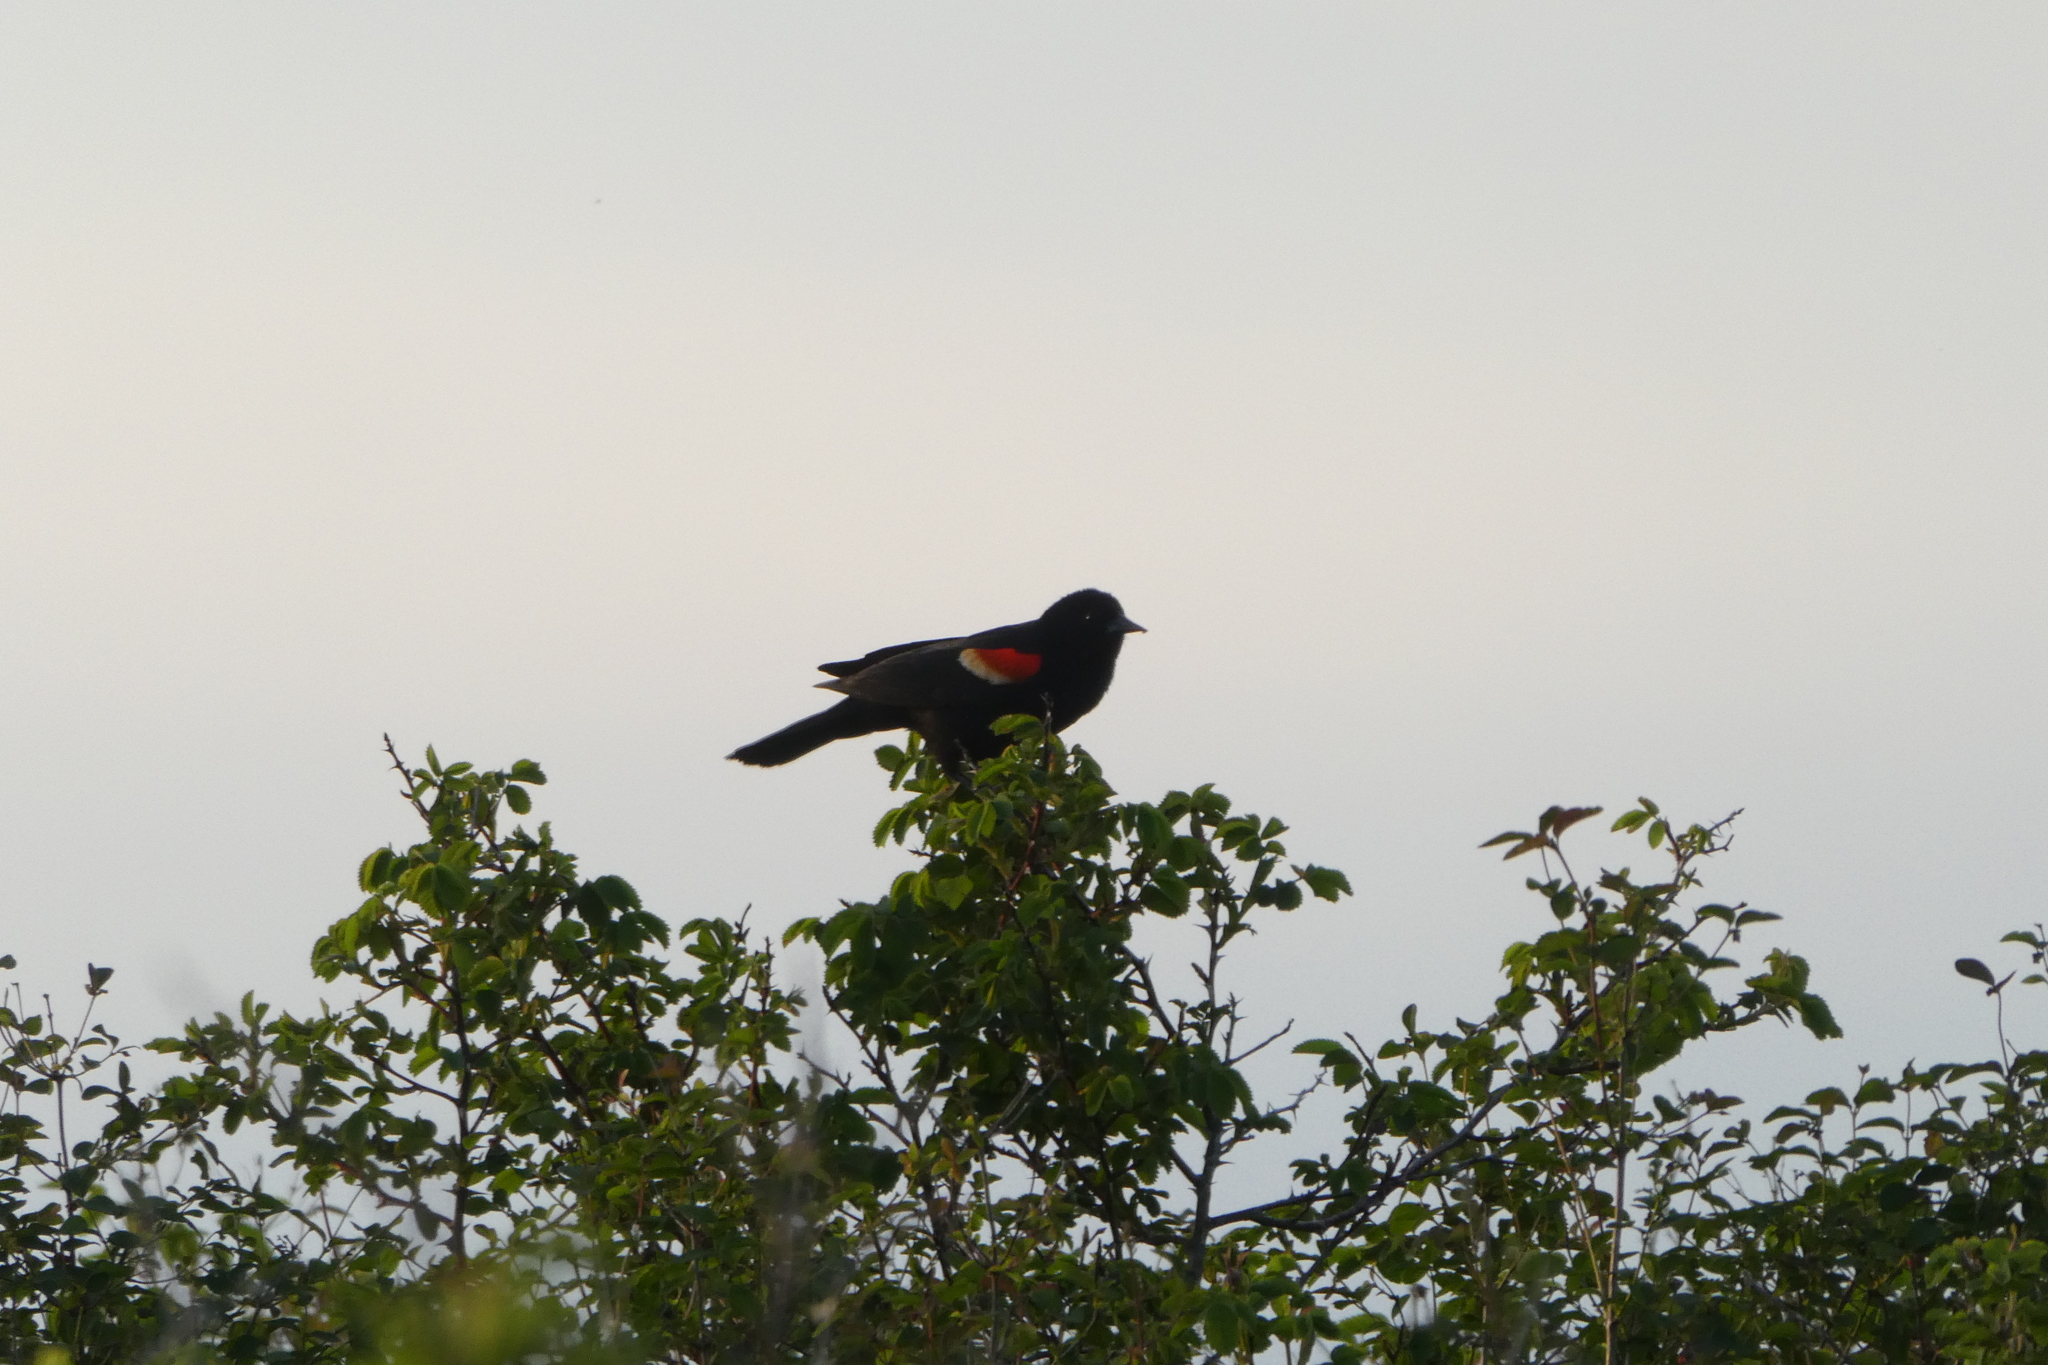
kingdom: Animalia
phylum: Chordata
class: Aves
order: Passeriformes
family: Icteridae
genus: Agelaius
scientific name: Agelaius phoeniceus
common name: Red-winged blackbird
